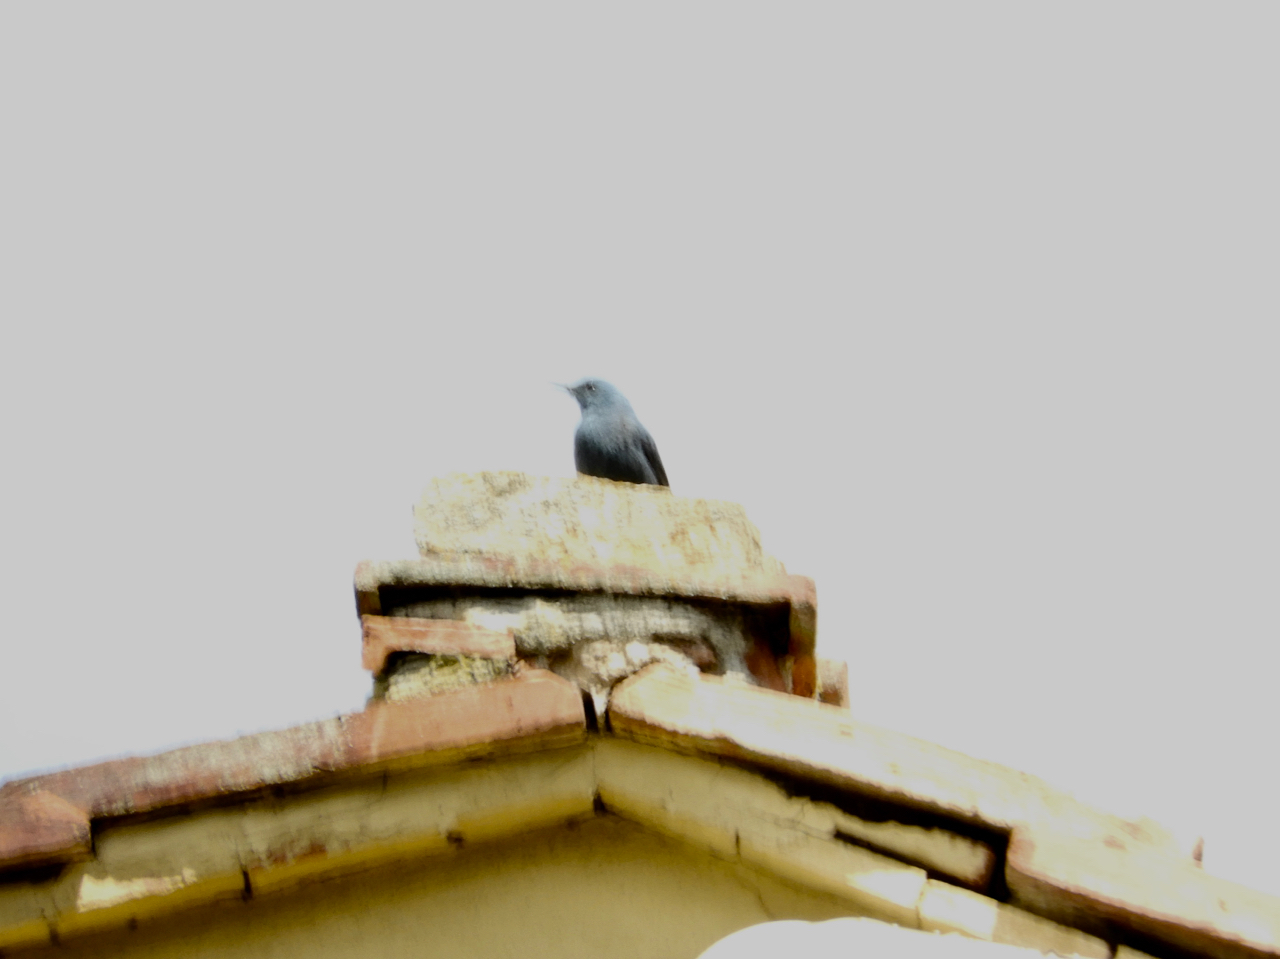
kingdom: Animalia
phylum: Chordata
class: Aves
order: Passeriformes
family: Muscicapidae
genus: Monticola
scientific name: Monticola solitarius
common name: Blue rock thrush
